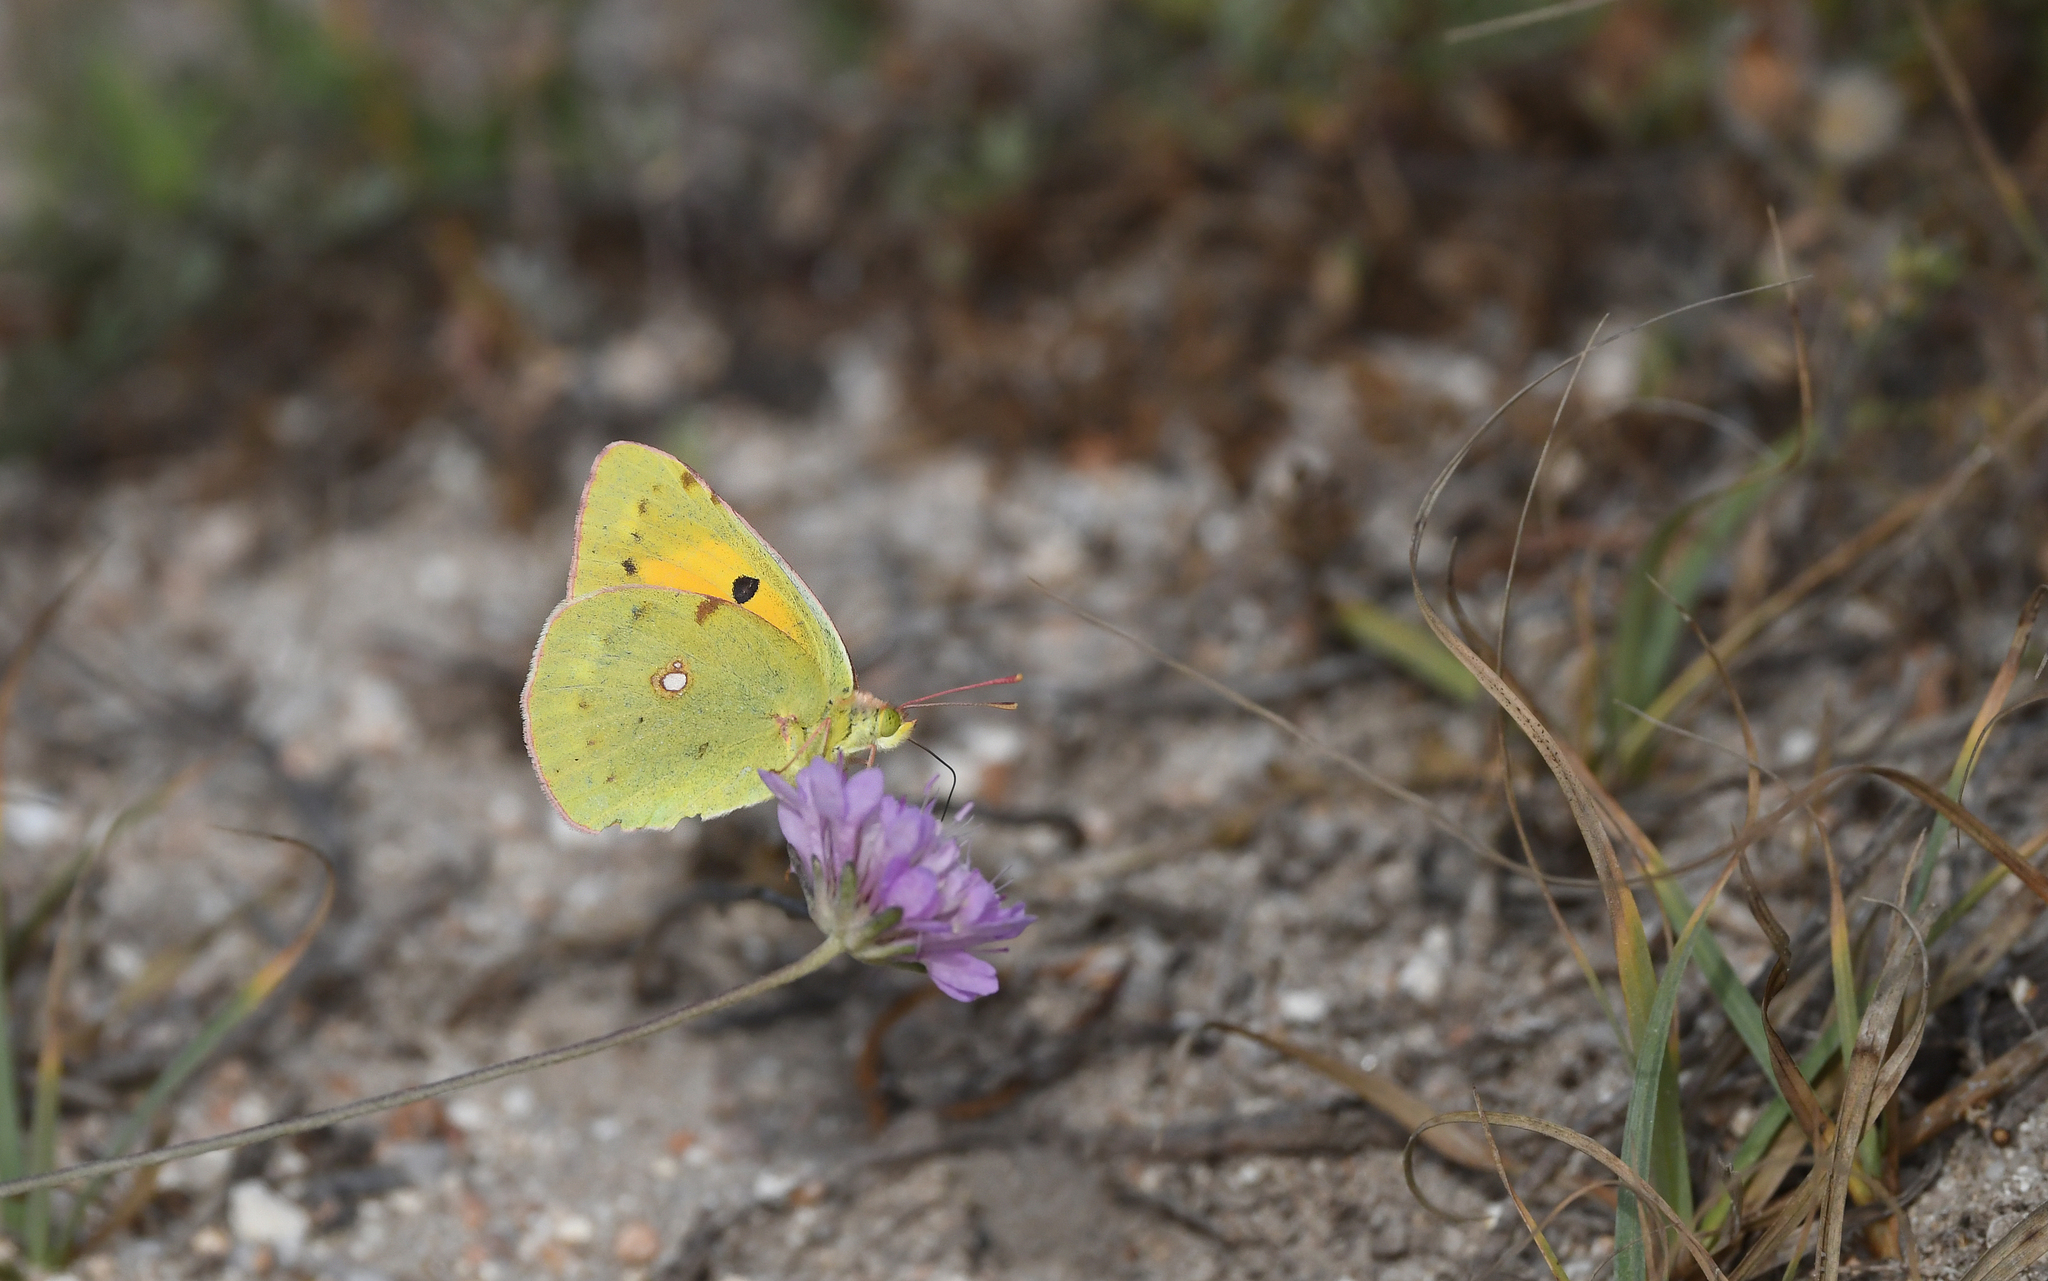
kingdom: Animalia
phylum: Arthropoda
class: Insecta
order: Lepidoptera
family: Pieridae
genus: Colias
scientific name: Colias croceus
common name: Clouded yellow
